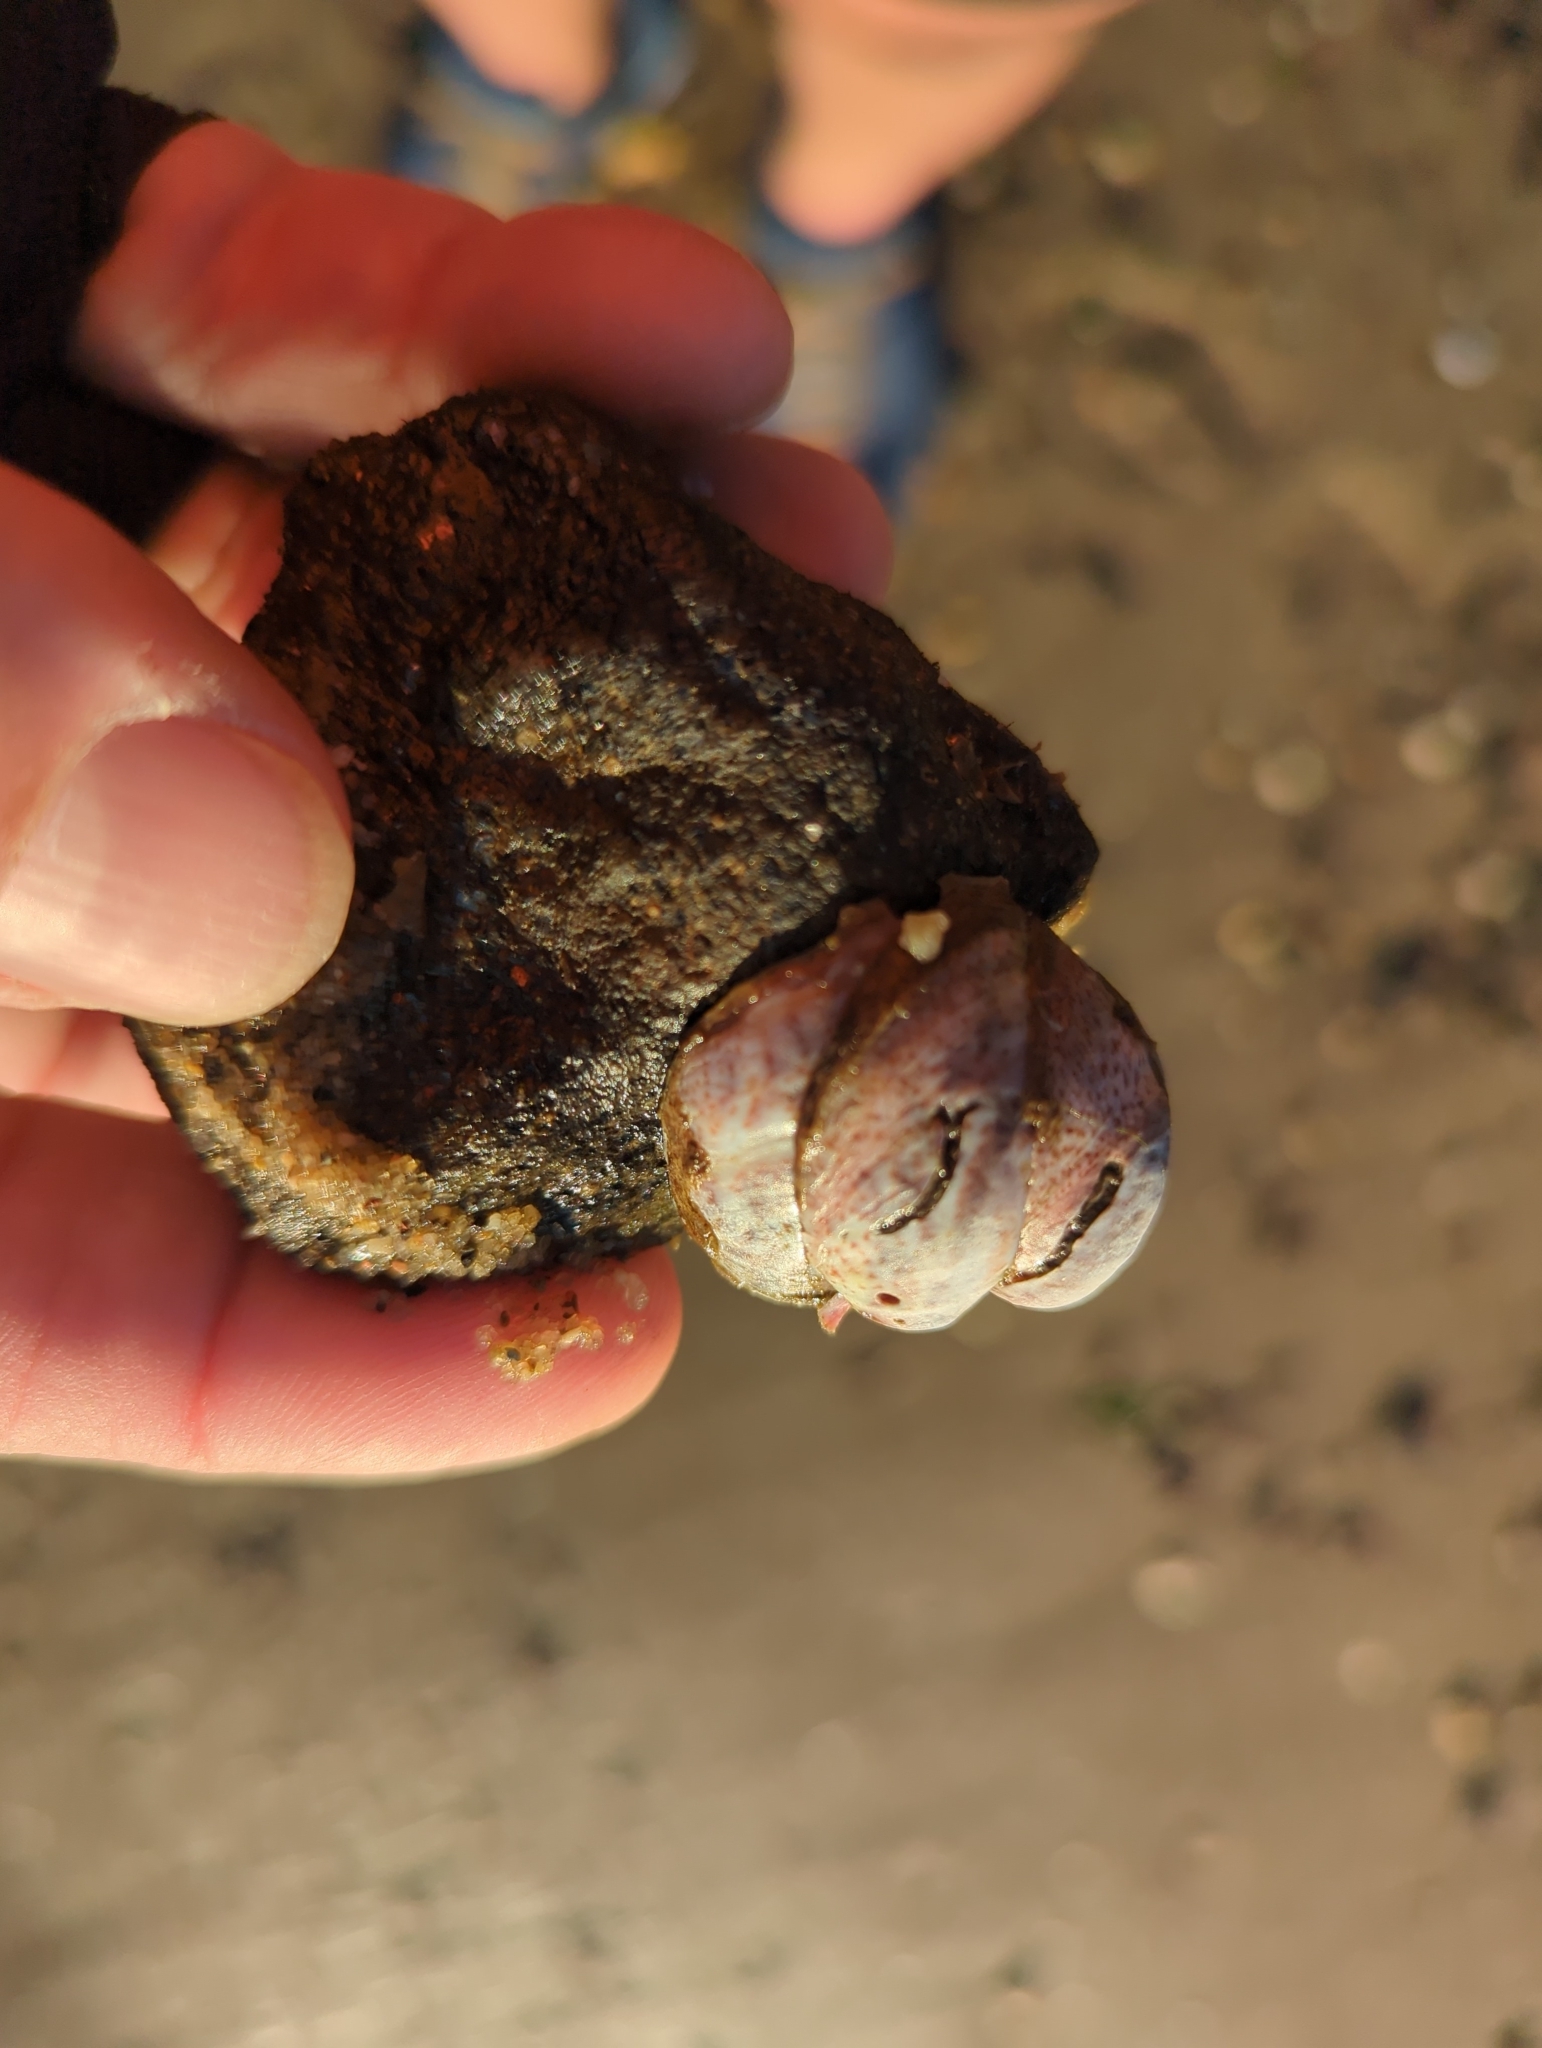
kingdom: Animalia
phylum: Mollusca
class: Gastropoda
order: Littorinimorpha
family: Calyptraeidae
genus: Crepidula
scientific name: Crepidula fornicata
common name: Slipper limpet
